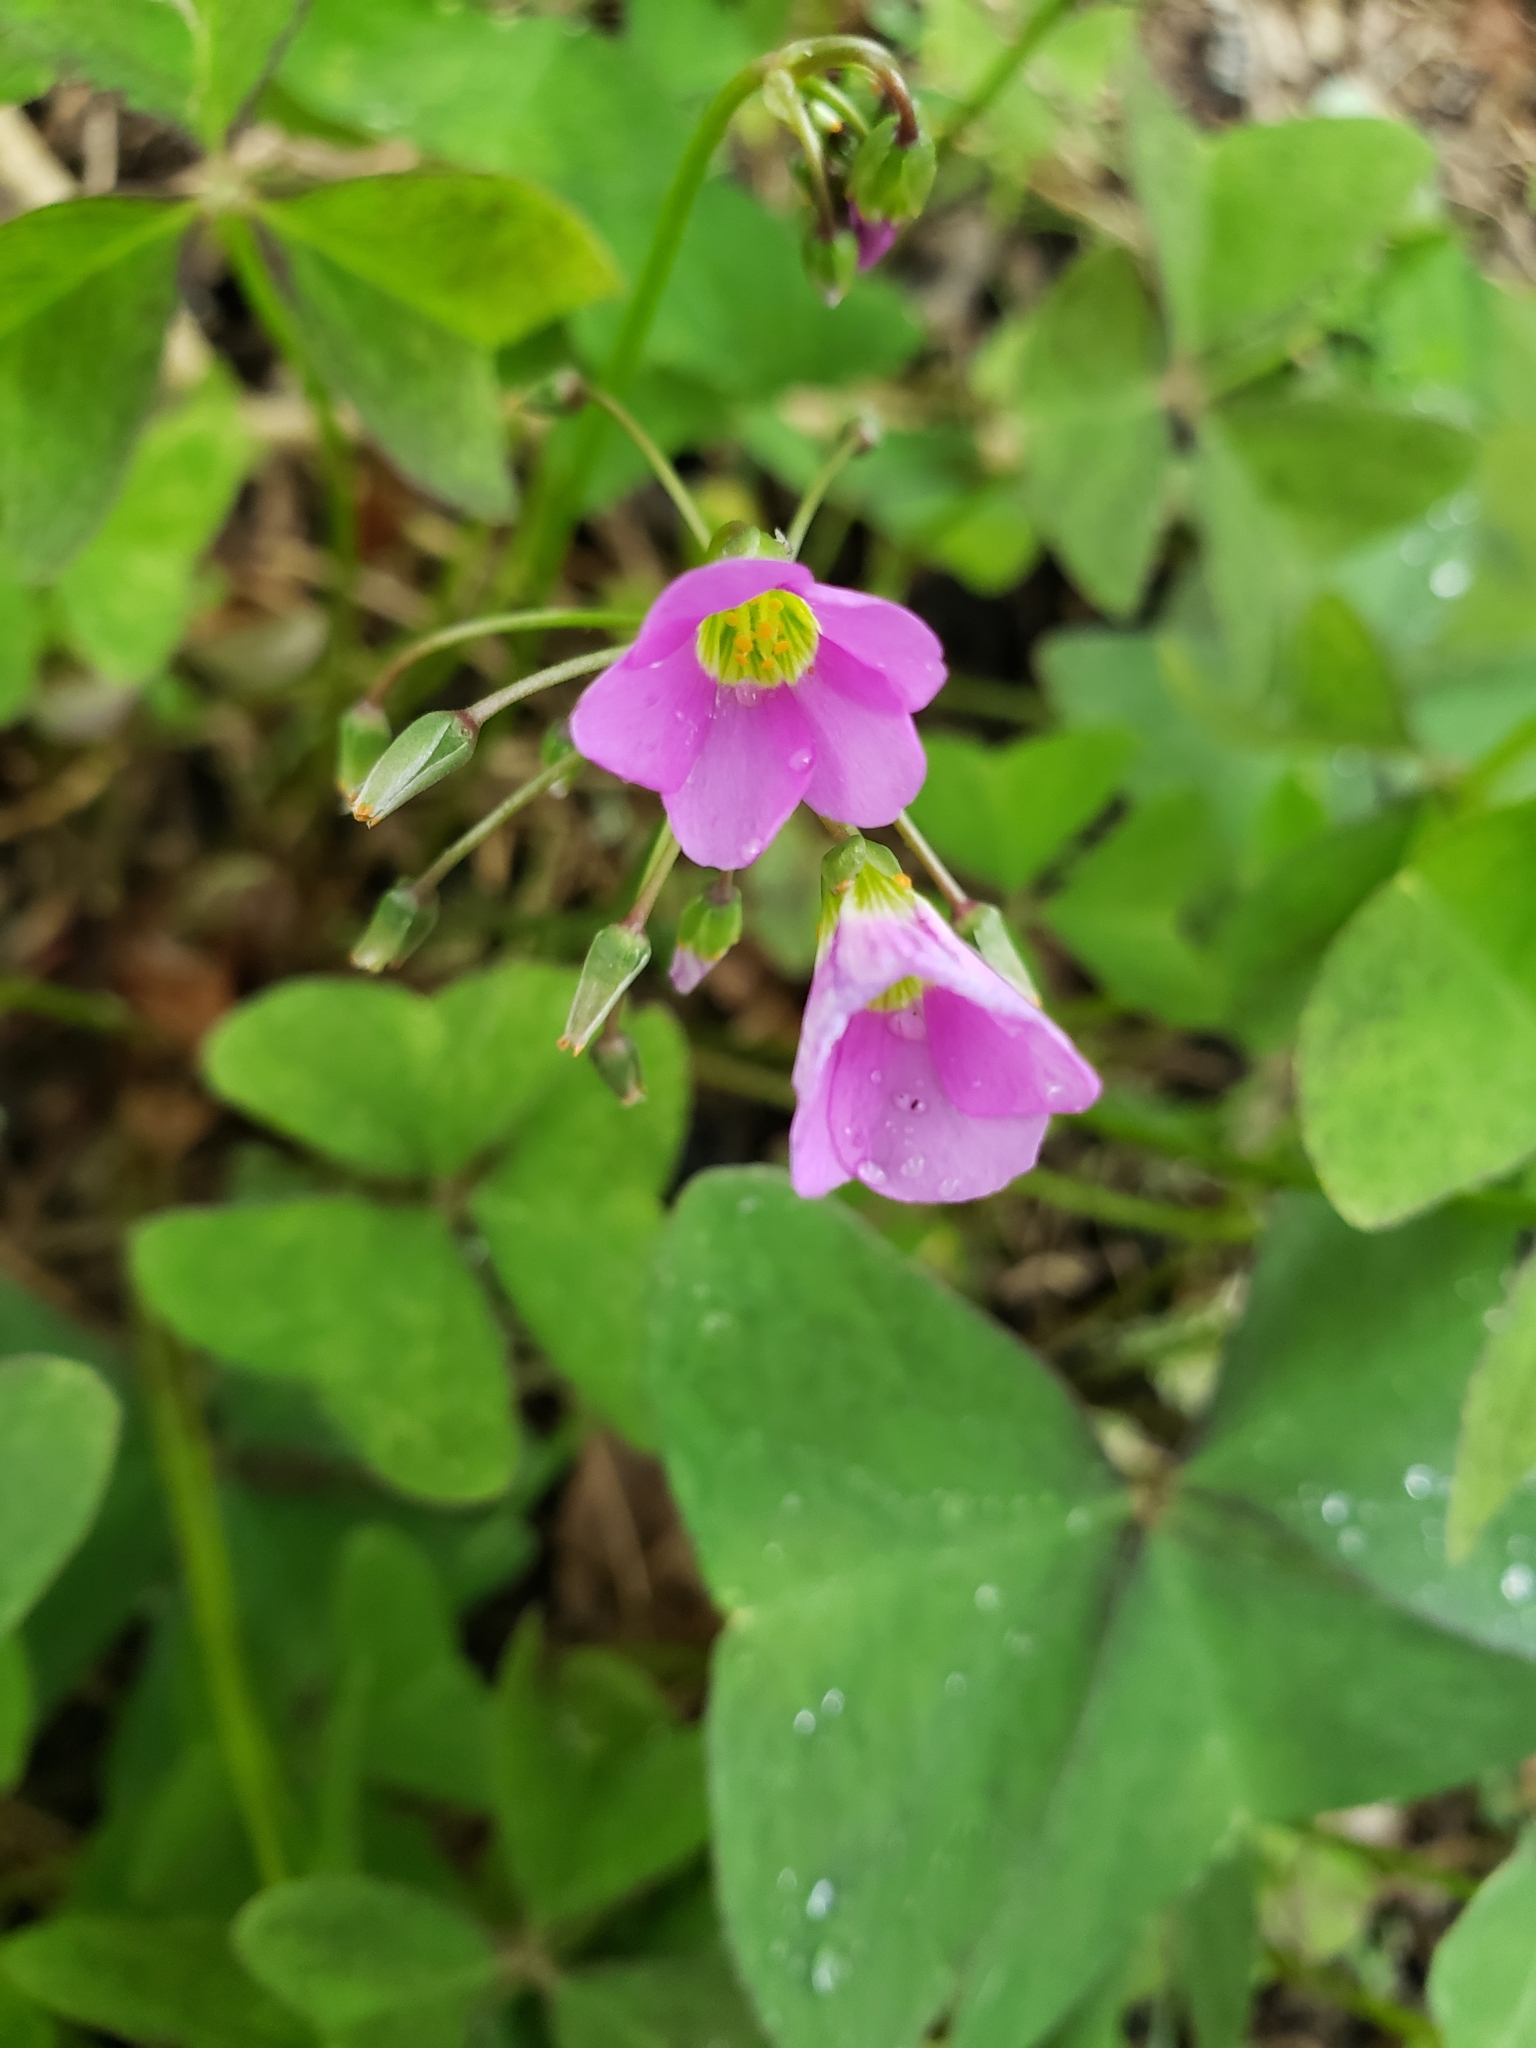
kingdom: Plantae
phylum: Tracheophyta
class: Magnoliopsida
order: Oxalidales
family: Oxalidaceae
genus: Oxalis
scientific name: Oxalis intermedia
